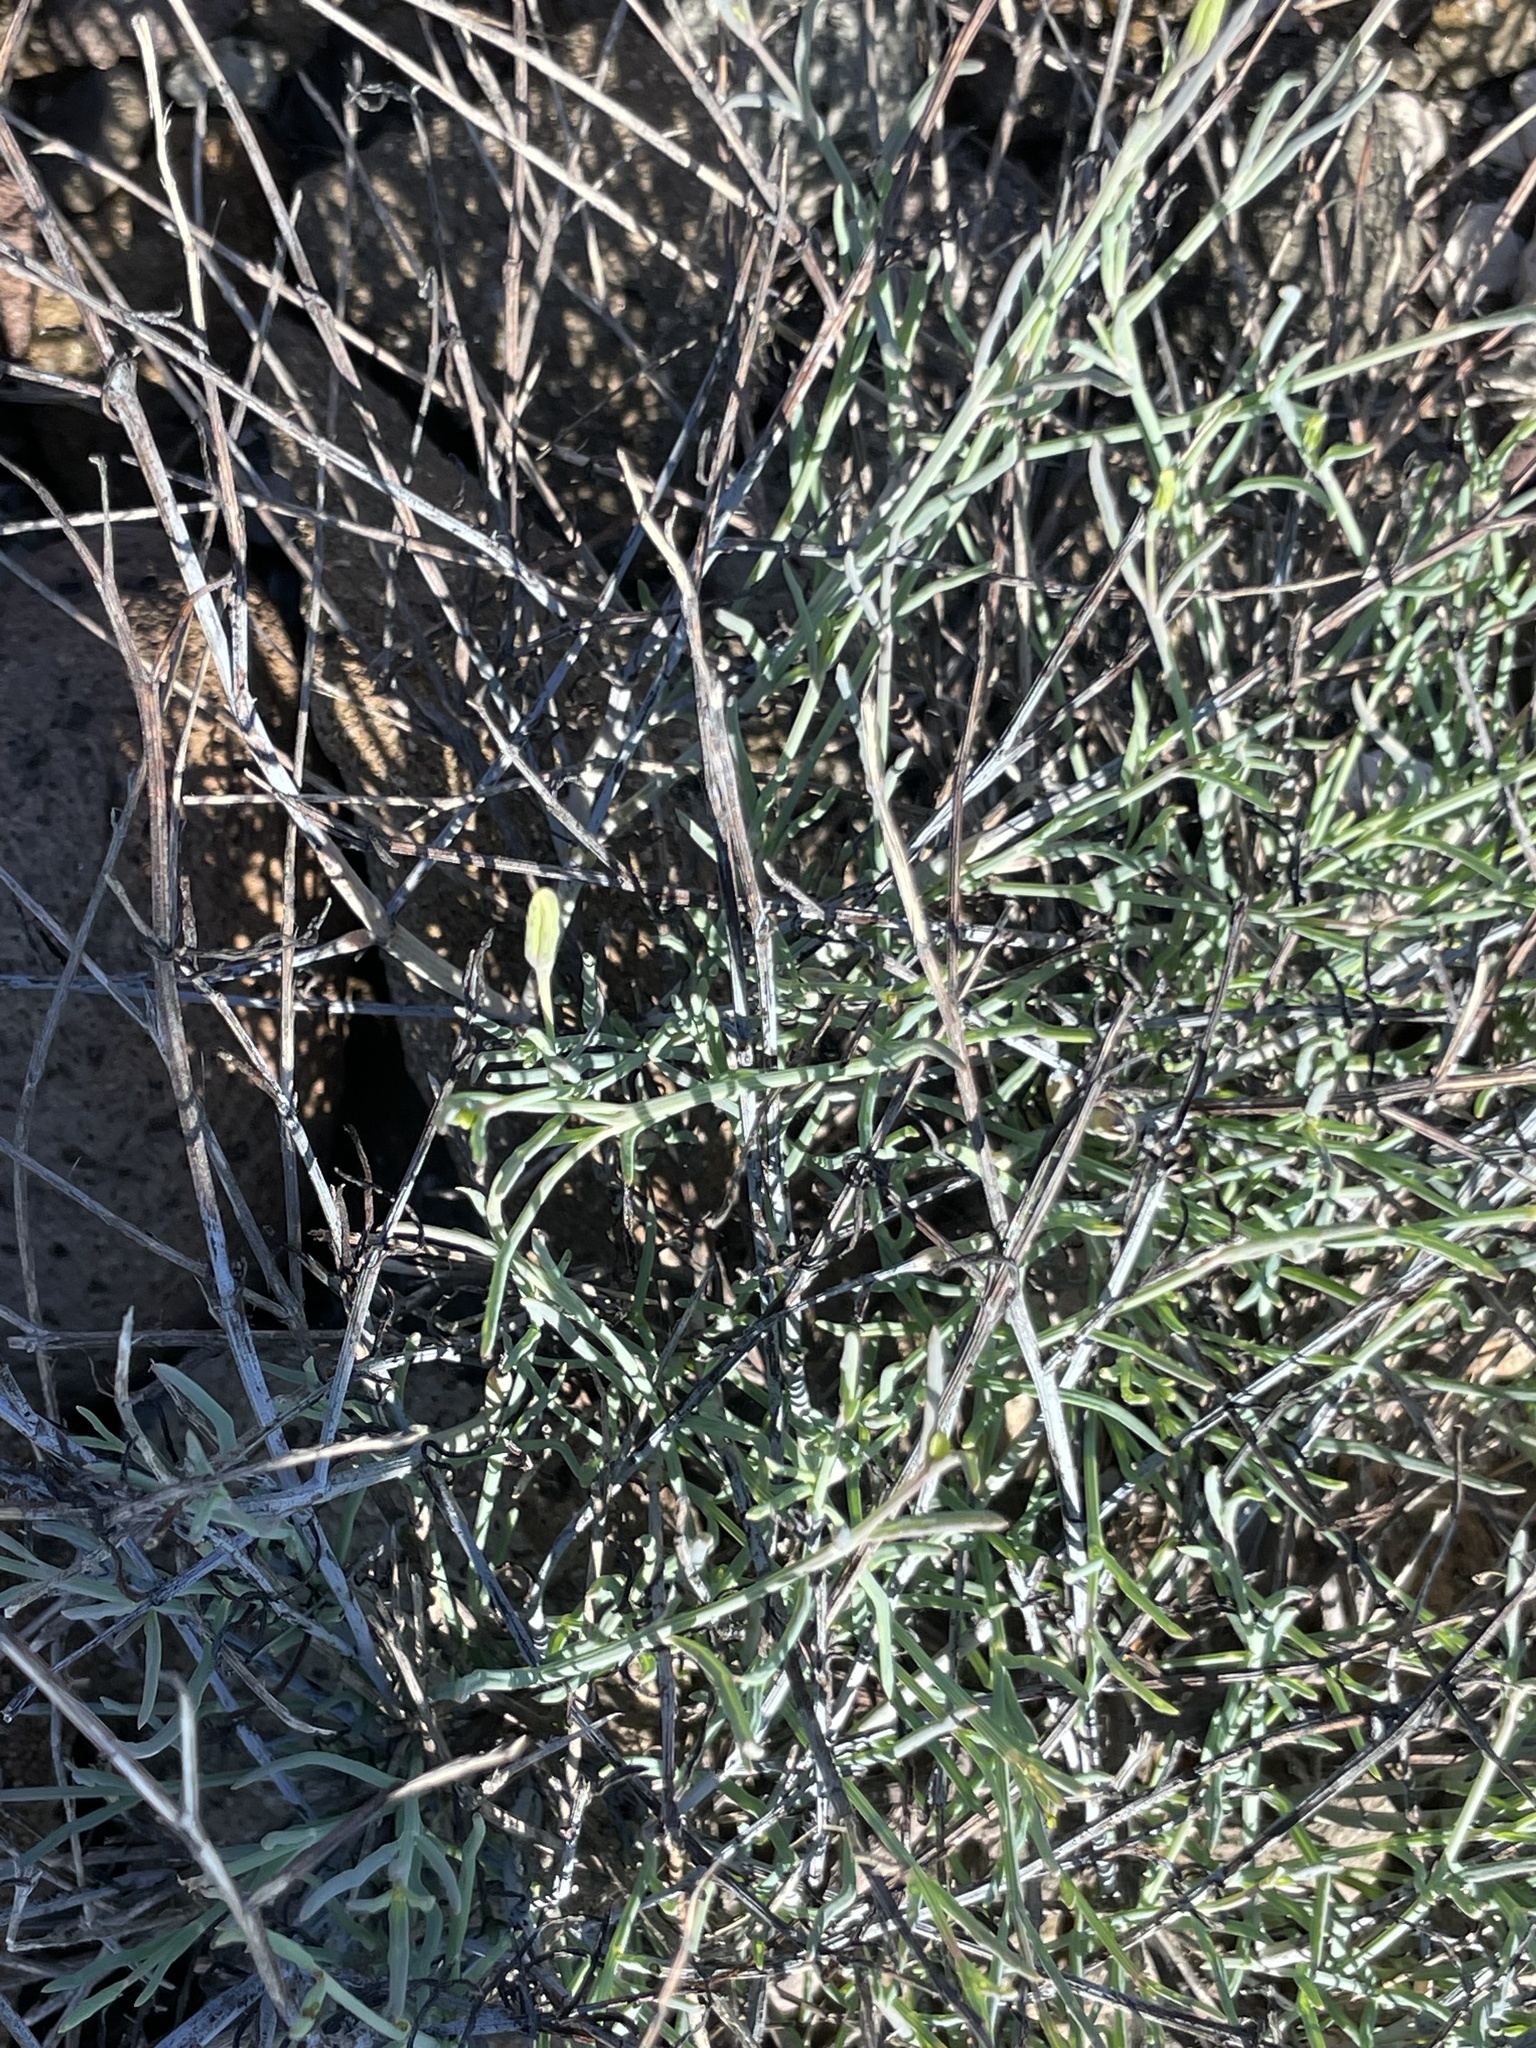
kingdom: Plantae
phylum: Tracheophyta
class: Magnoliopsida
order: Asterales
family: Asteraceae
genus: Porophyllum
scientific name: Porophyllum gracile
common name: Odora
